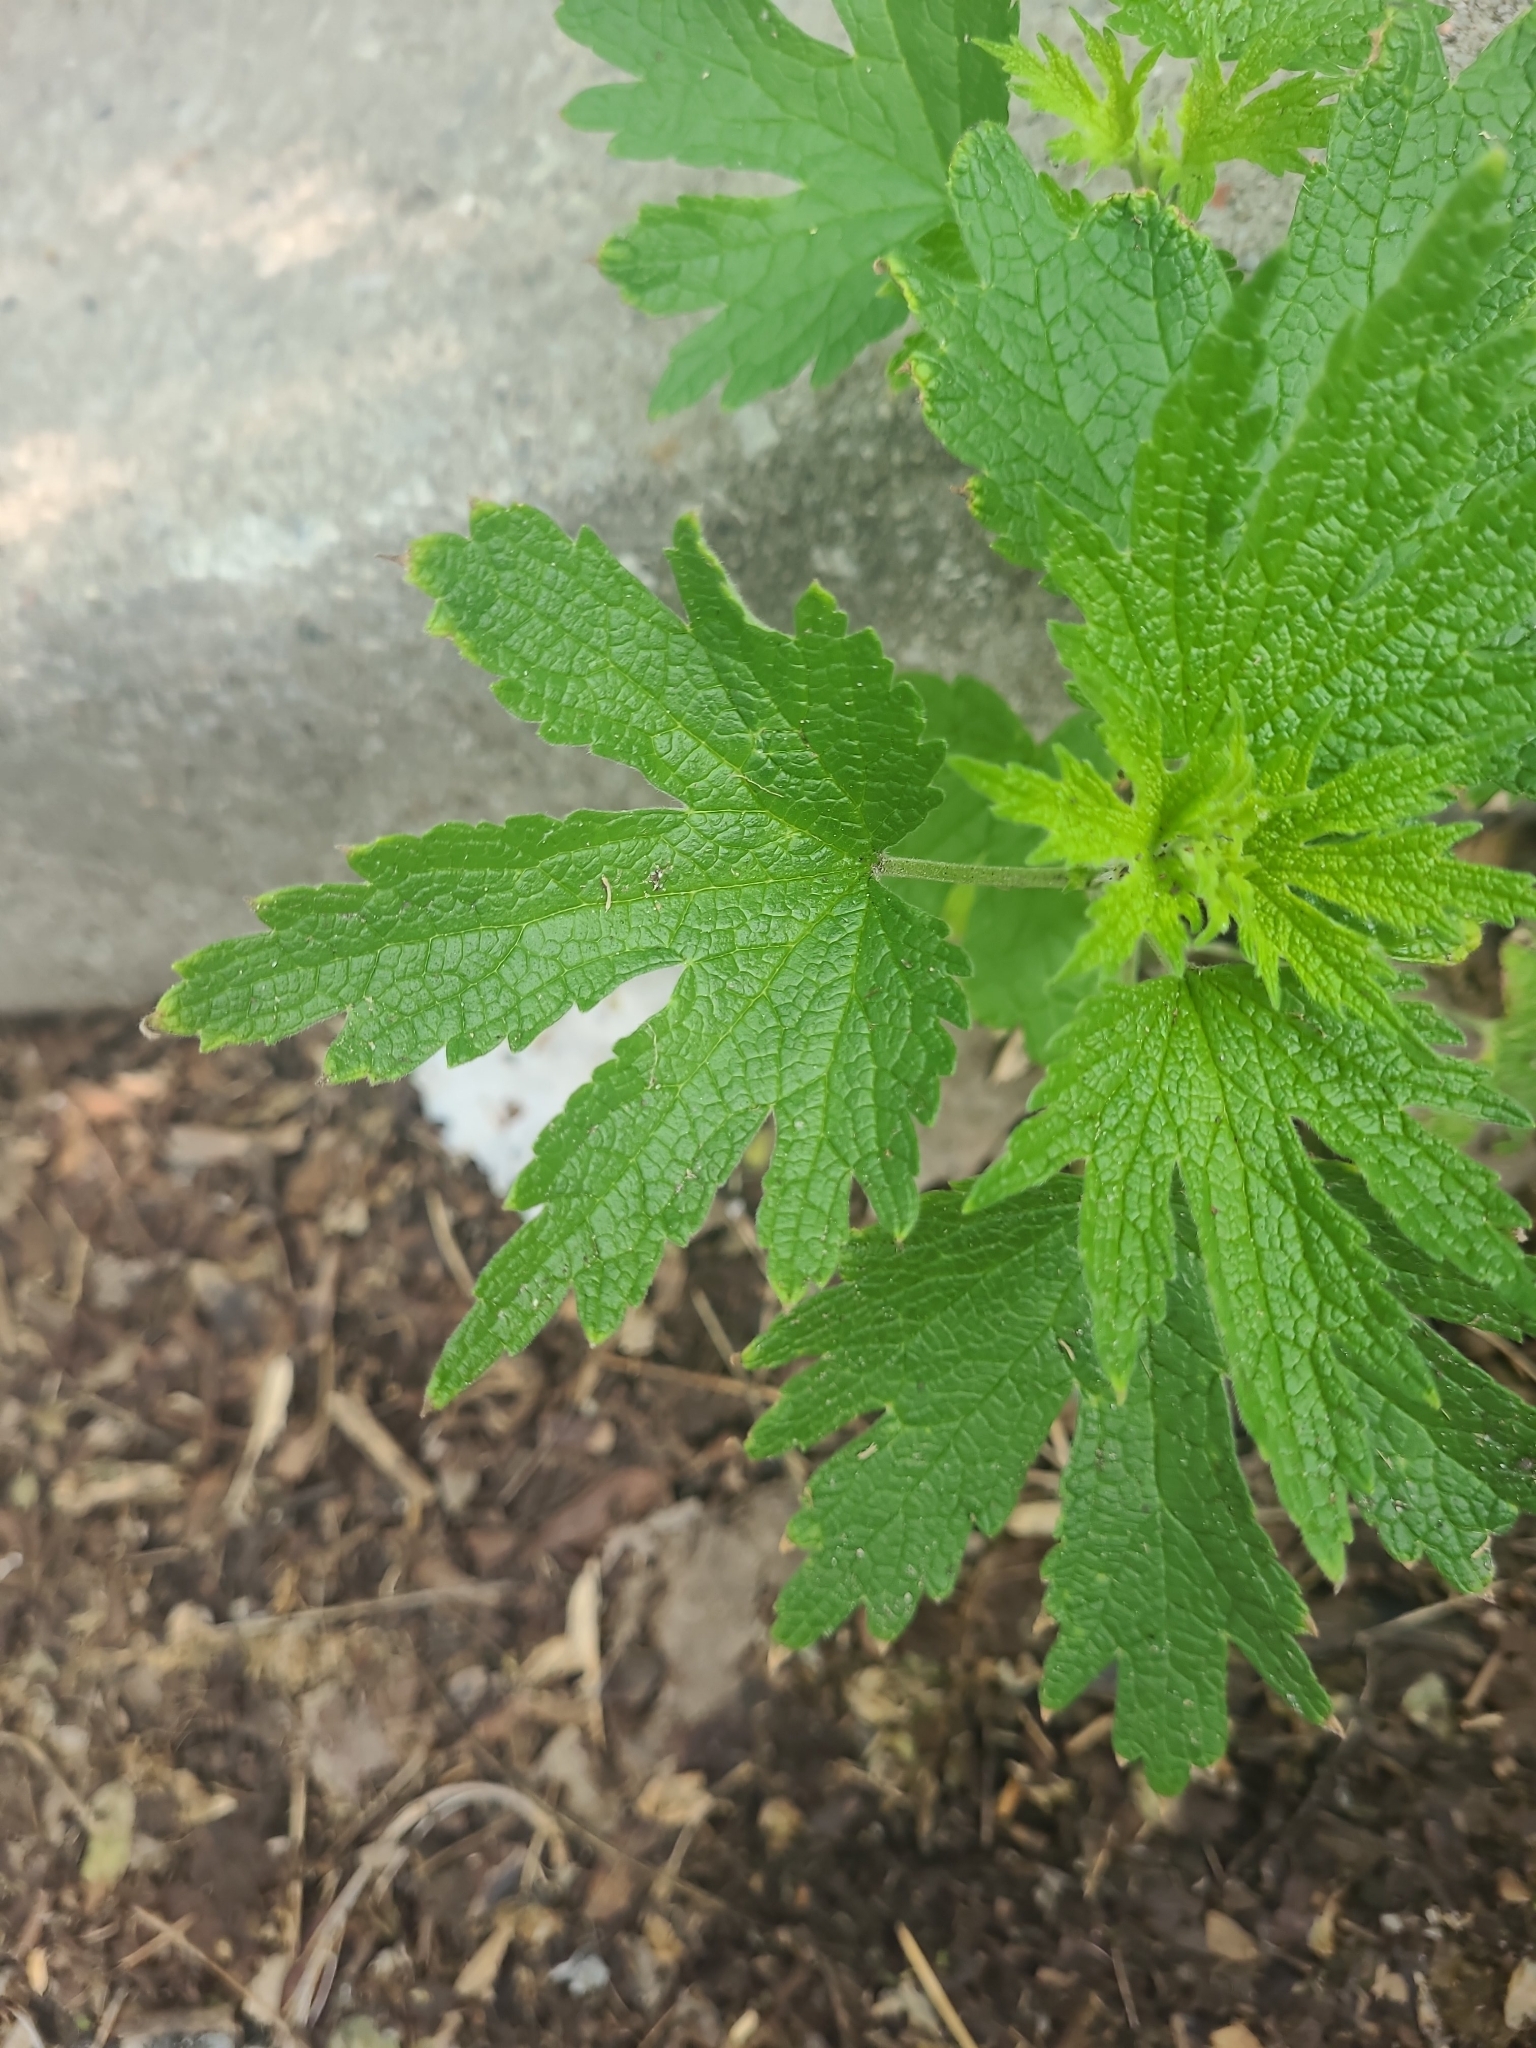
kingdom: Plantae
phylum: Tracheophyta
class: Magnoliopsida
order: Lamiales
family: Lamiaceae
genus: Leonurus
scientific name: Leonurus cardiaca
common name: Motherwort
